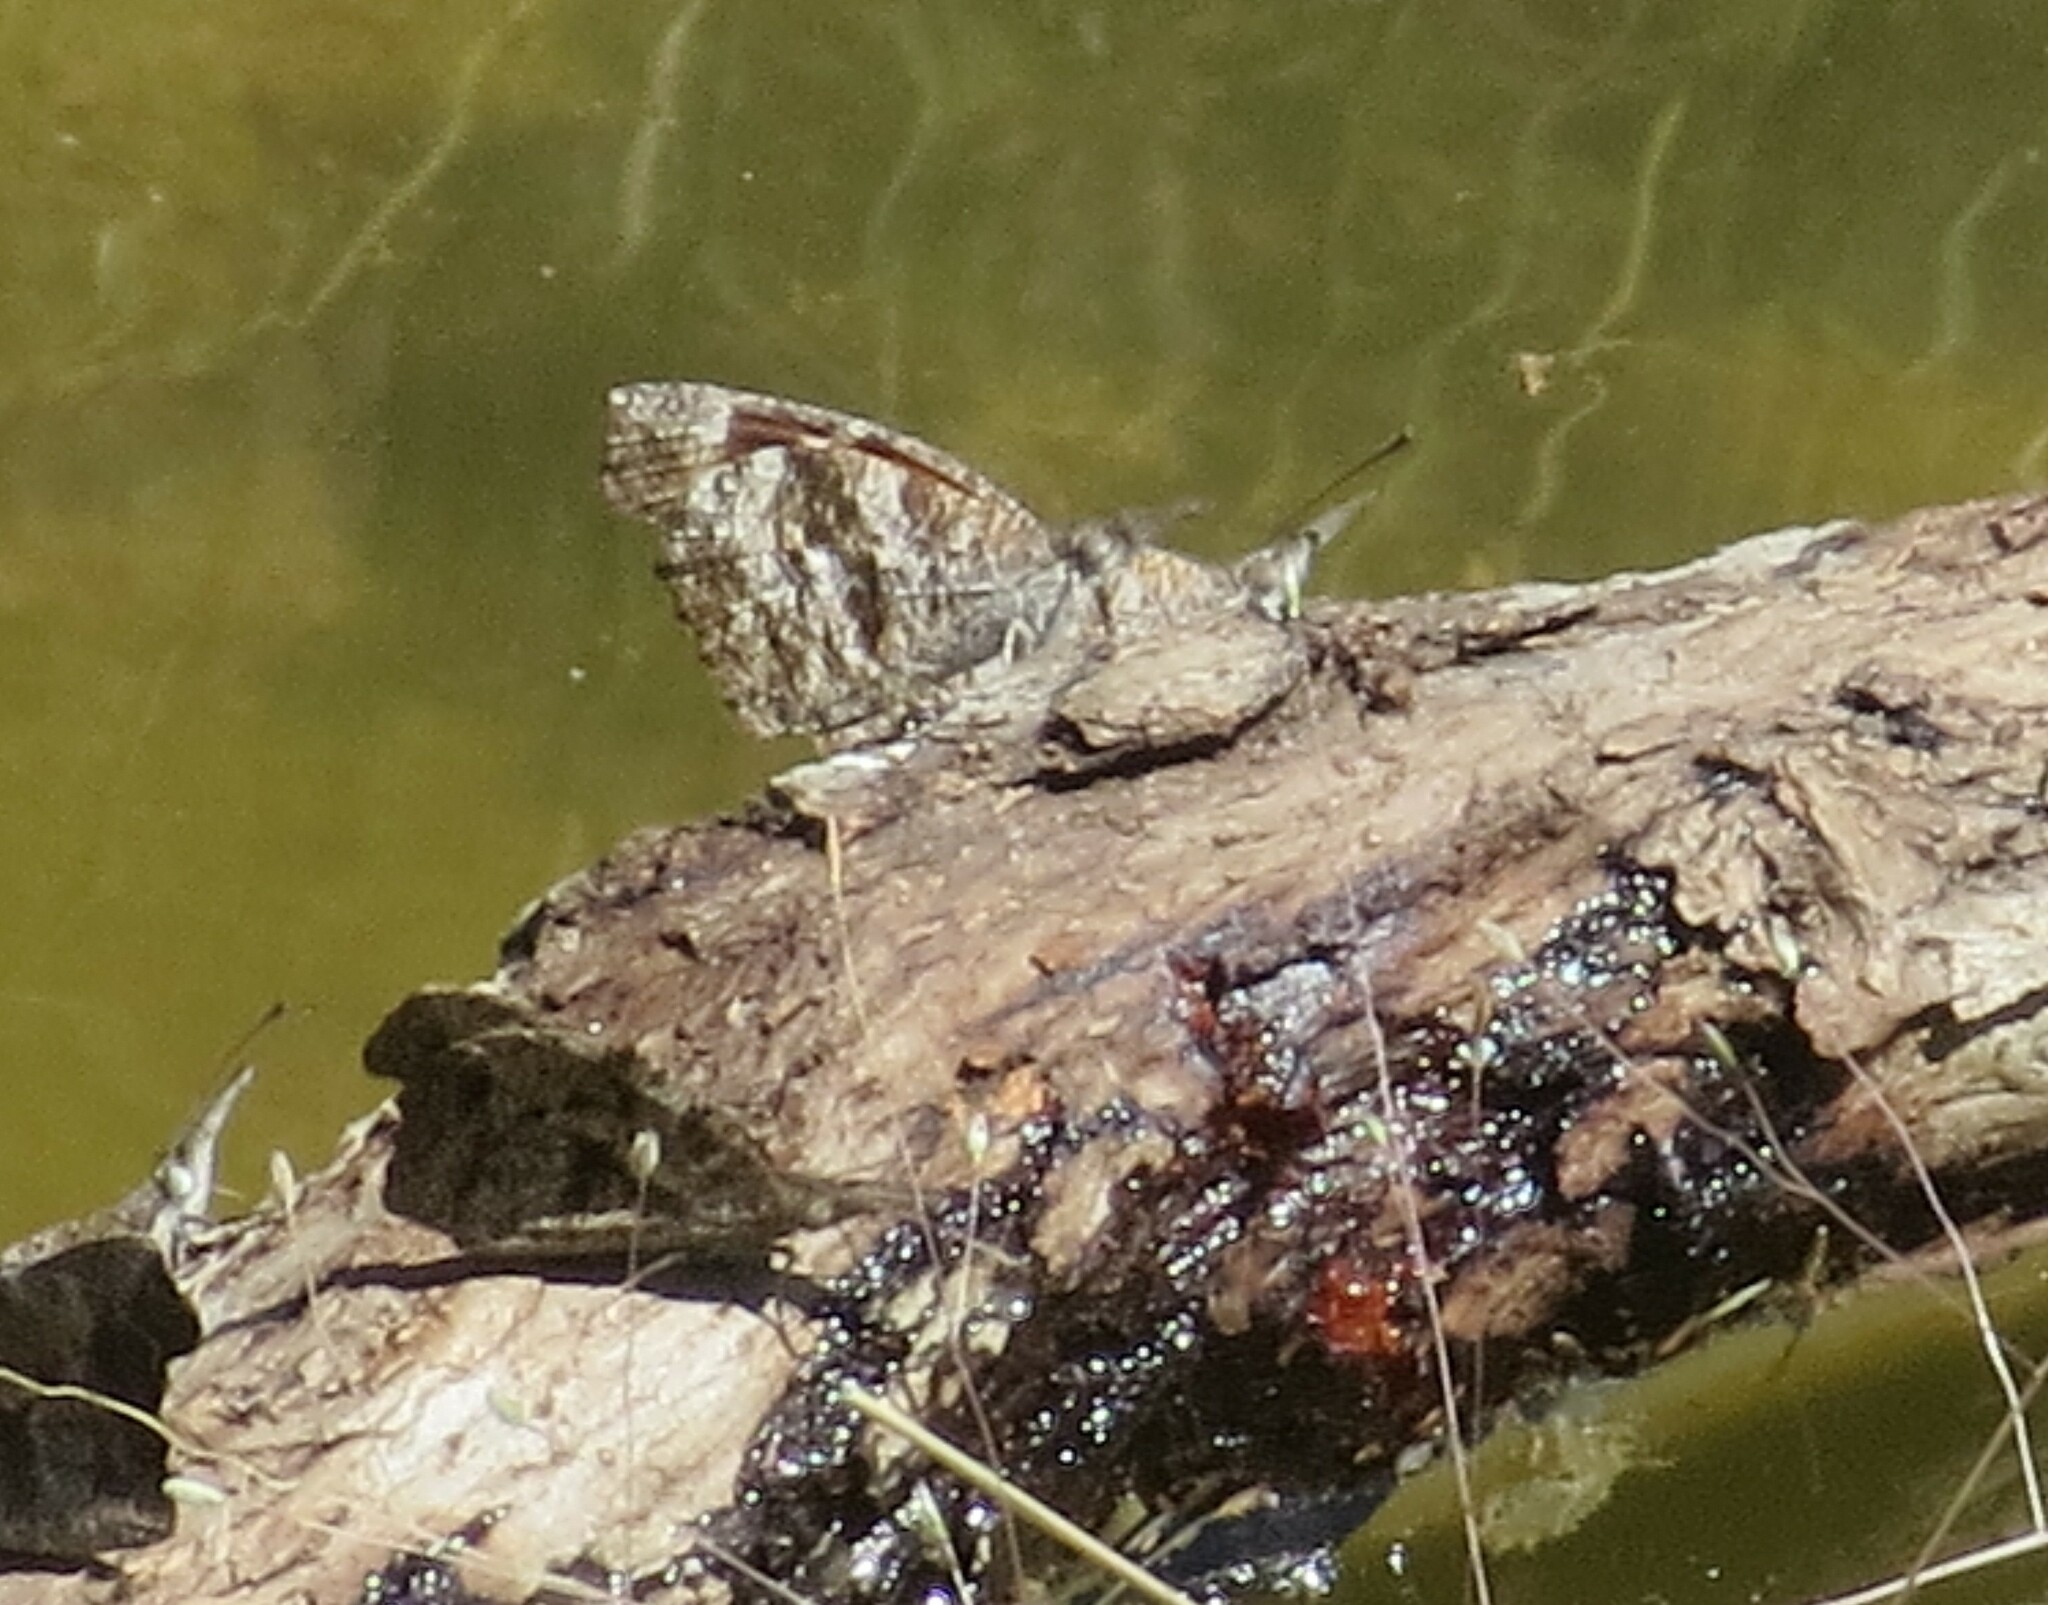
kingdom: Animalia
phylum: Arthropoda
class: Insecta
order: Lepidoptera
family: Nymphalidae
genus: Libytheana
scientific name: Libytheana carinenta
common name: American snout
